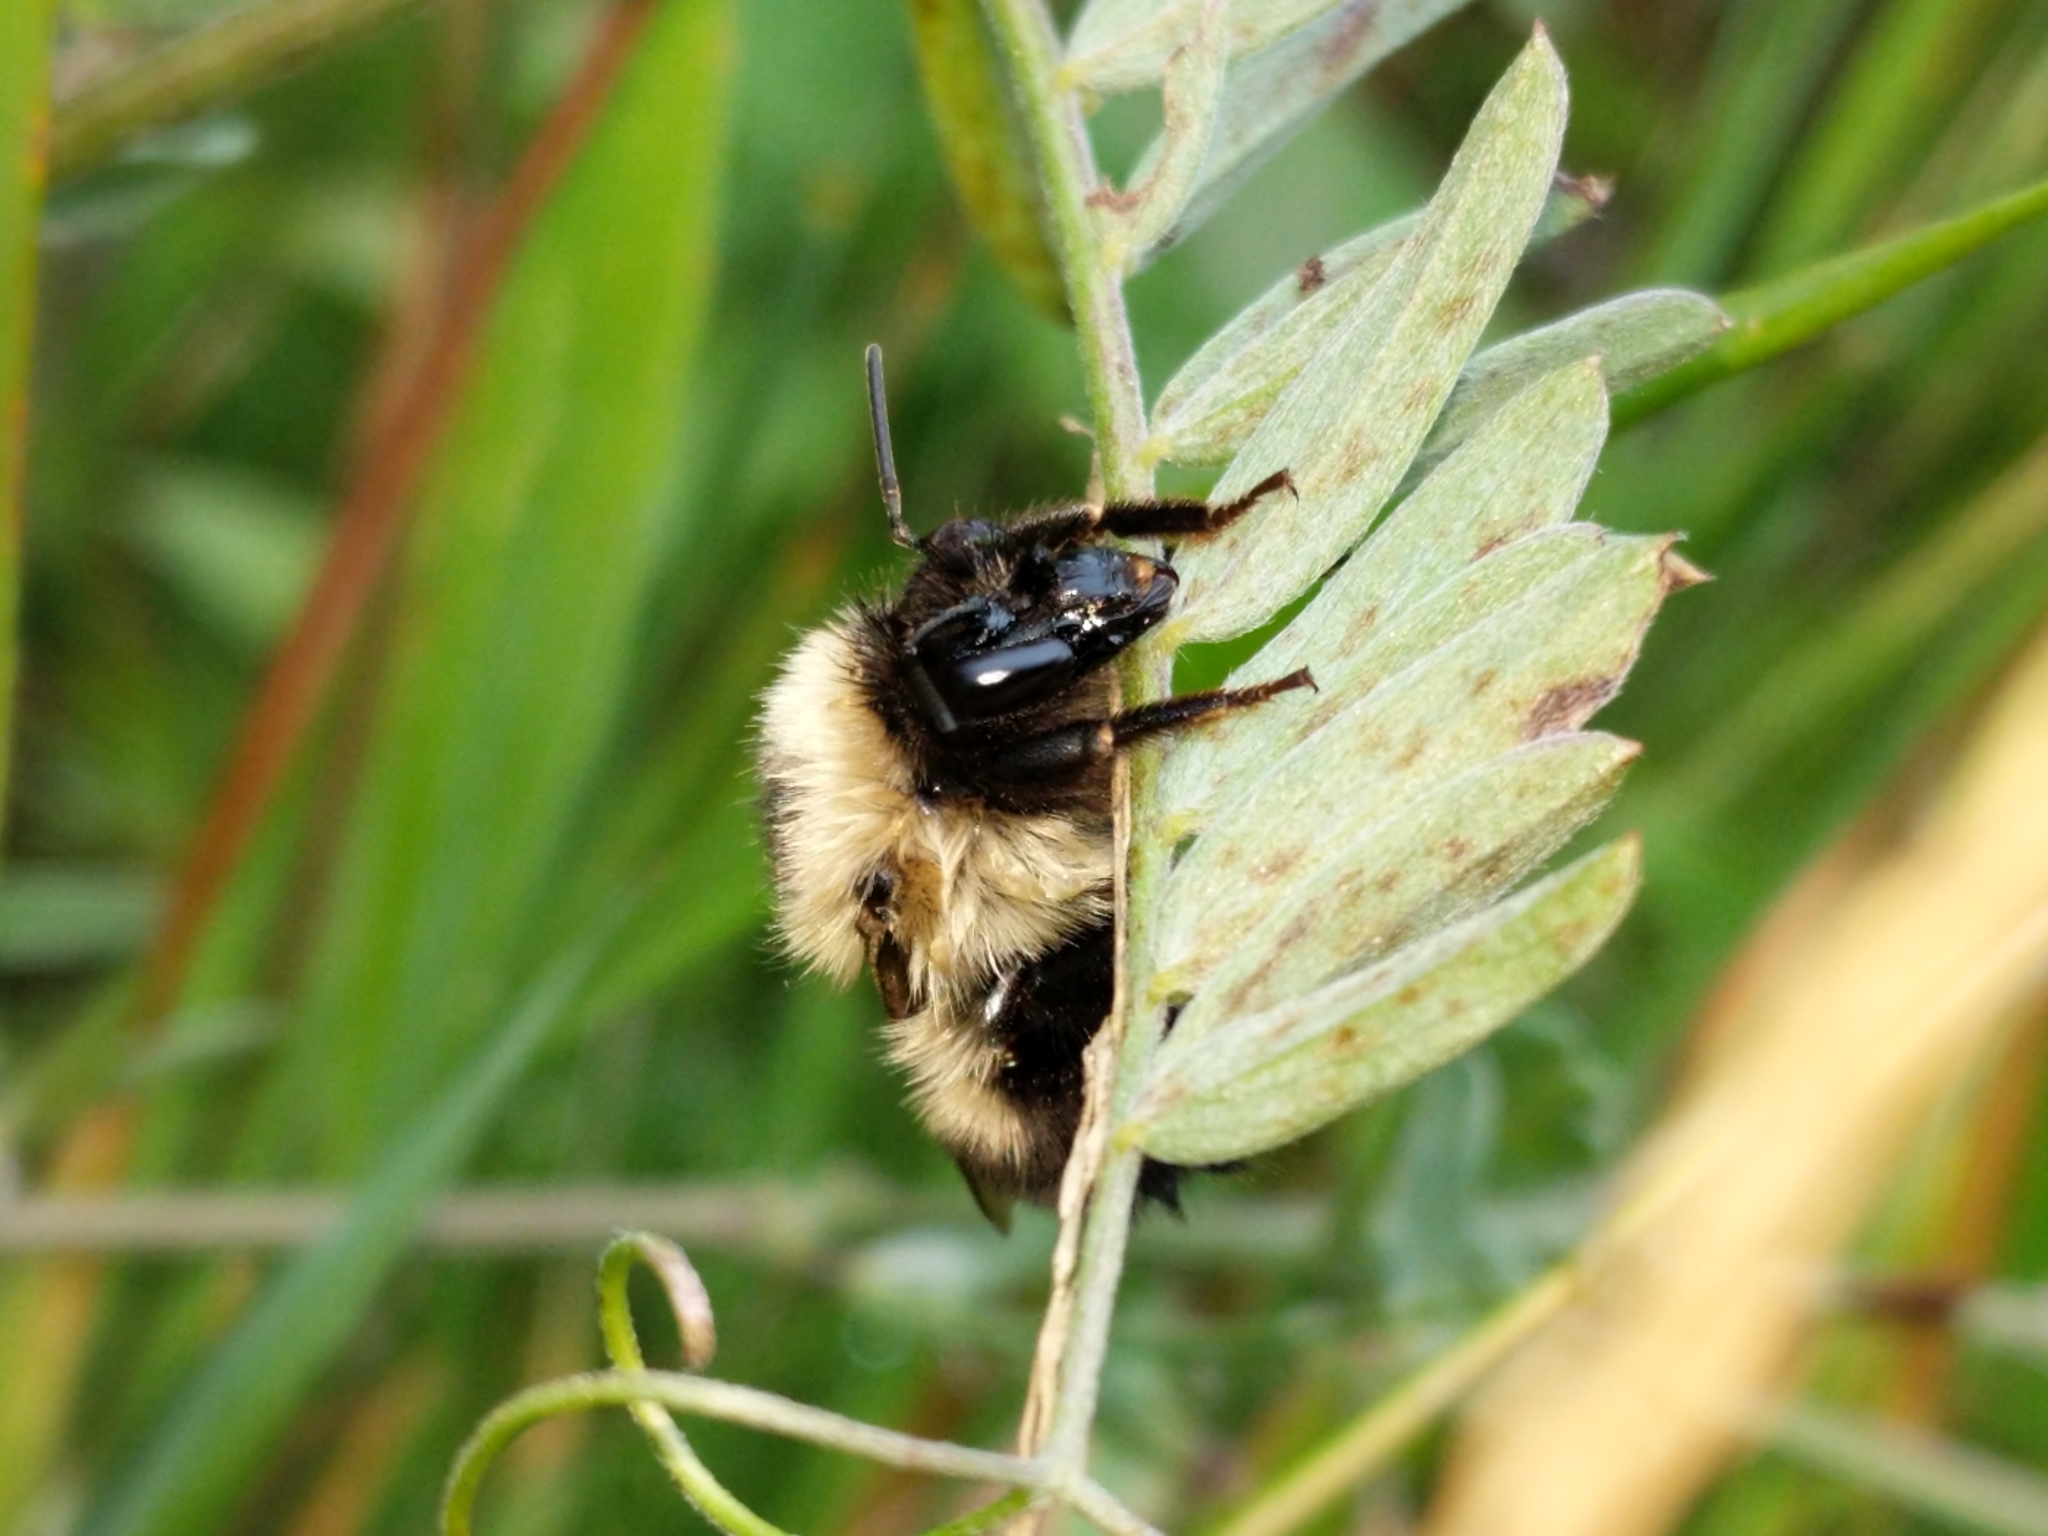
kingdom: Animalia
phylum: Arthropoda
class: Insecta
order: Hymenoptera
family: Apidae
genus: Bombus
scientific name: Bombus vagans
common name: Half-black bumble bee
